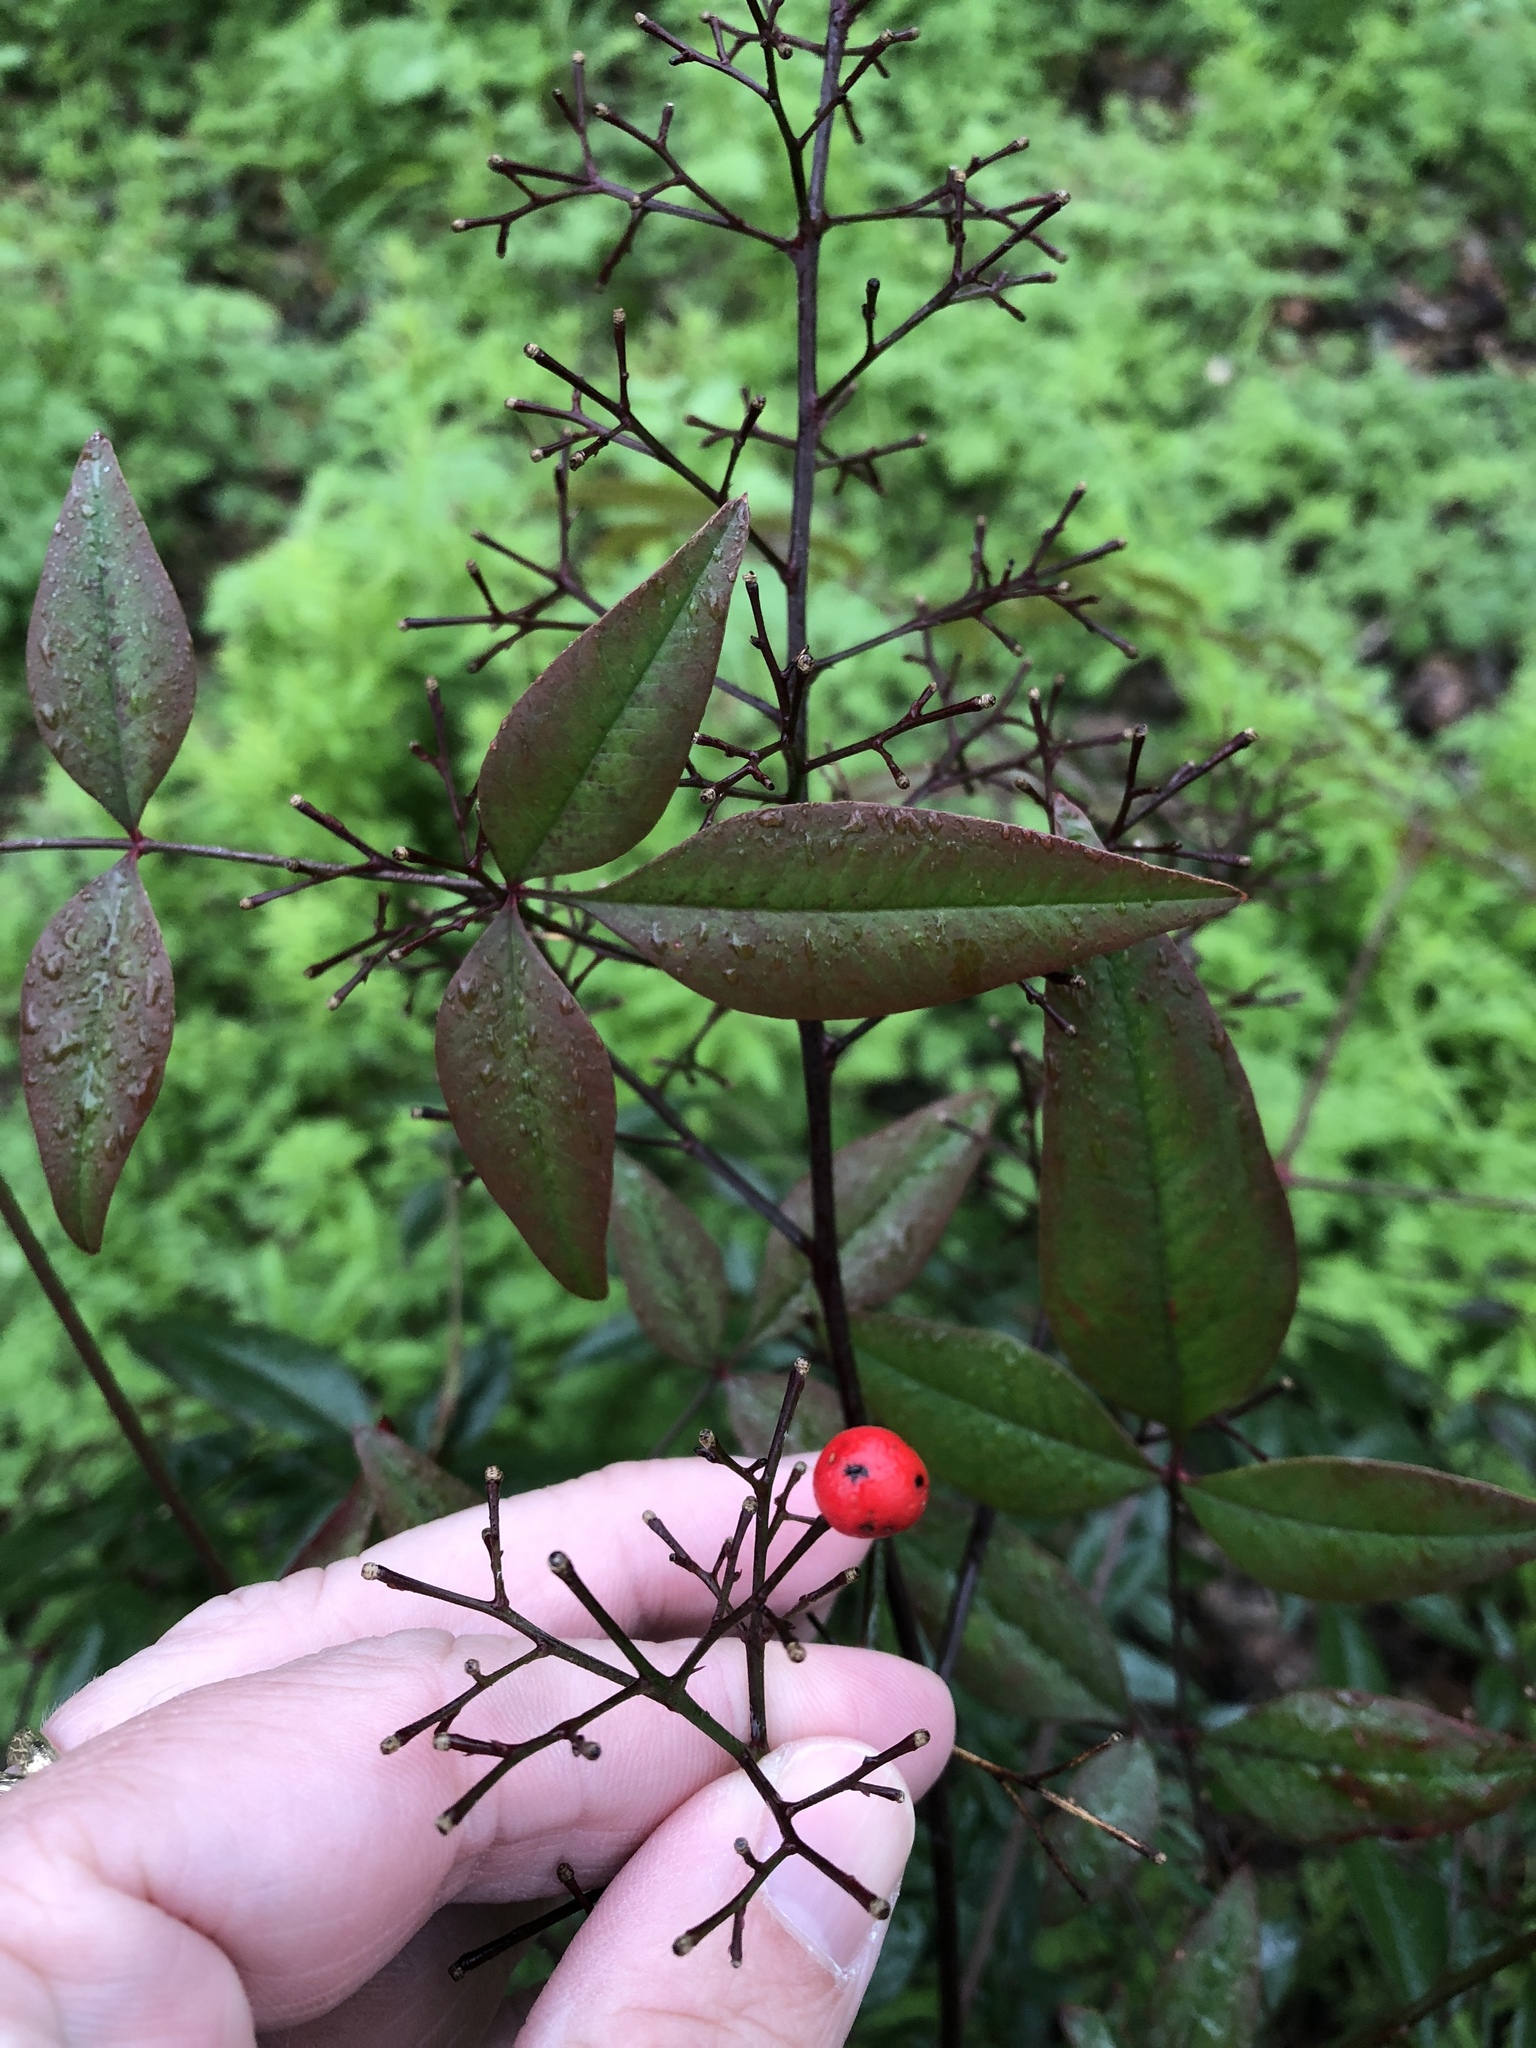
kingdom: Plantae
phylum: Tracheophyta
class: Magnoliopsida
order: Ranunculales
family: Berberidaceae
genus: Nandina
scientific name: Nandina domestica
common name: Sacred bamboo
